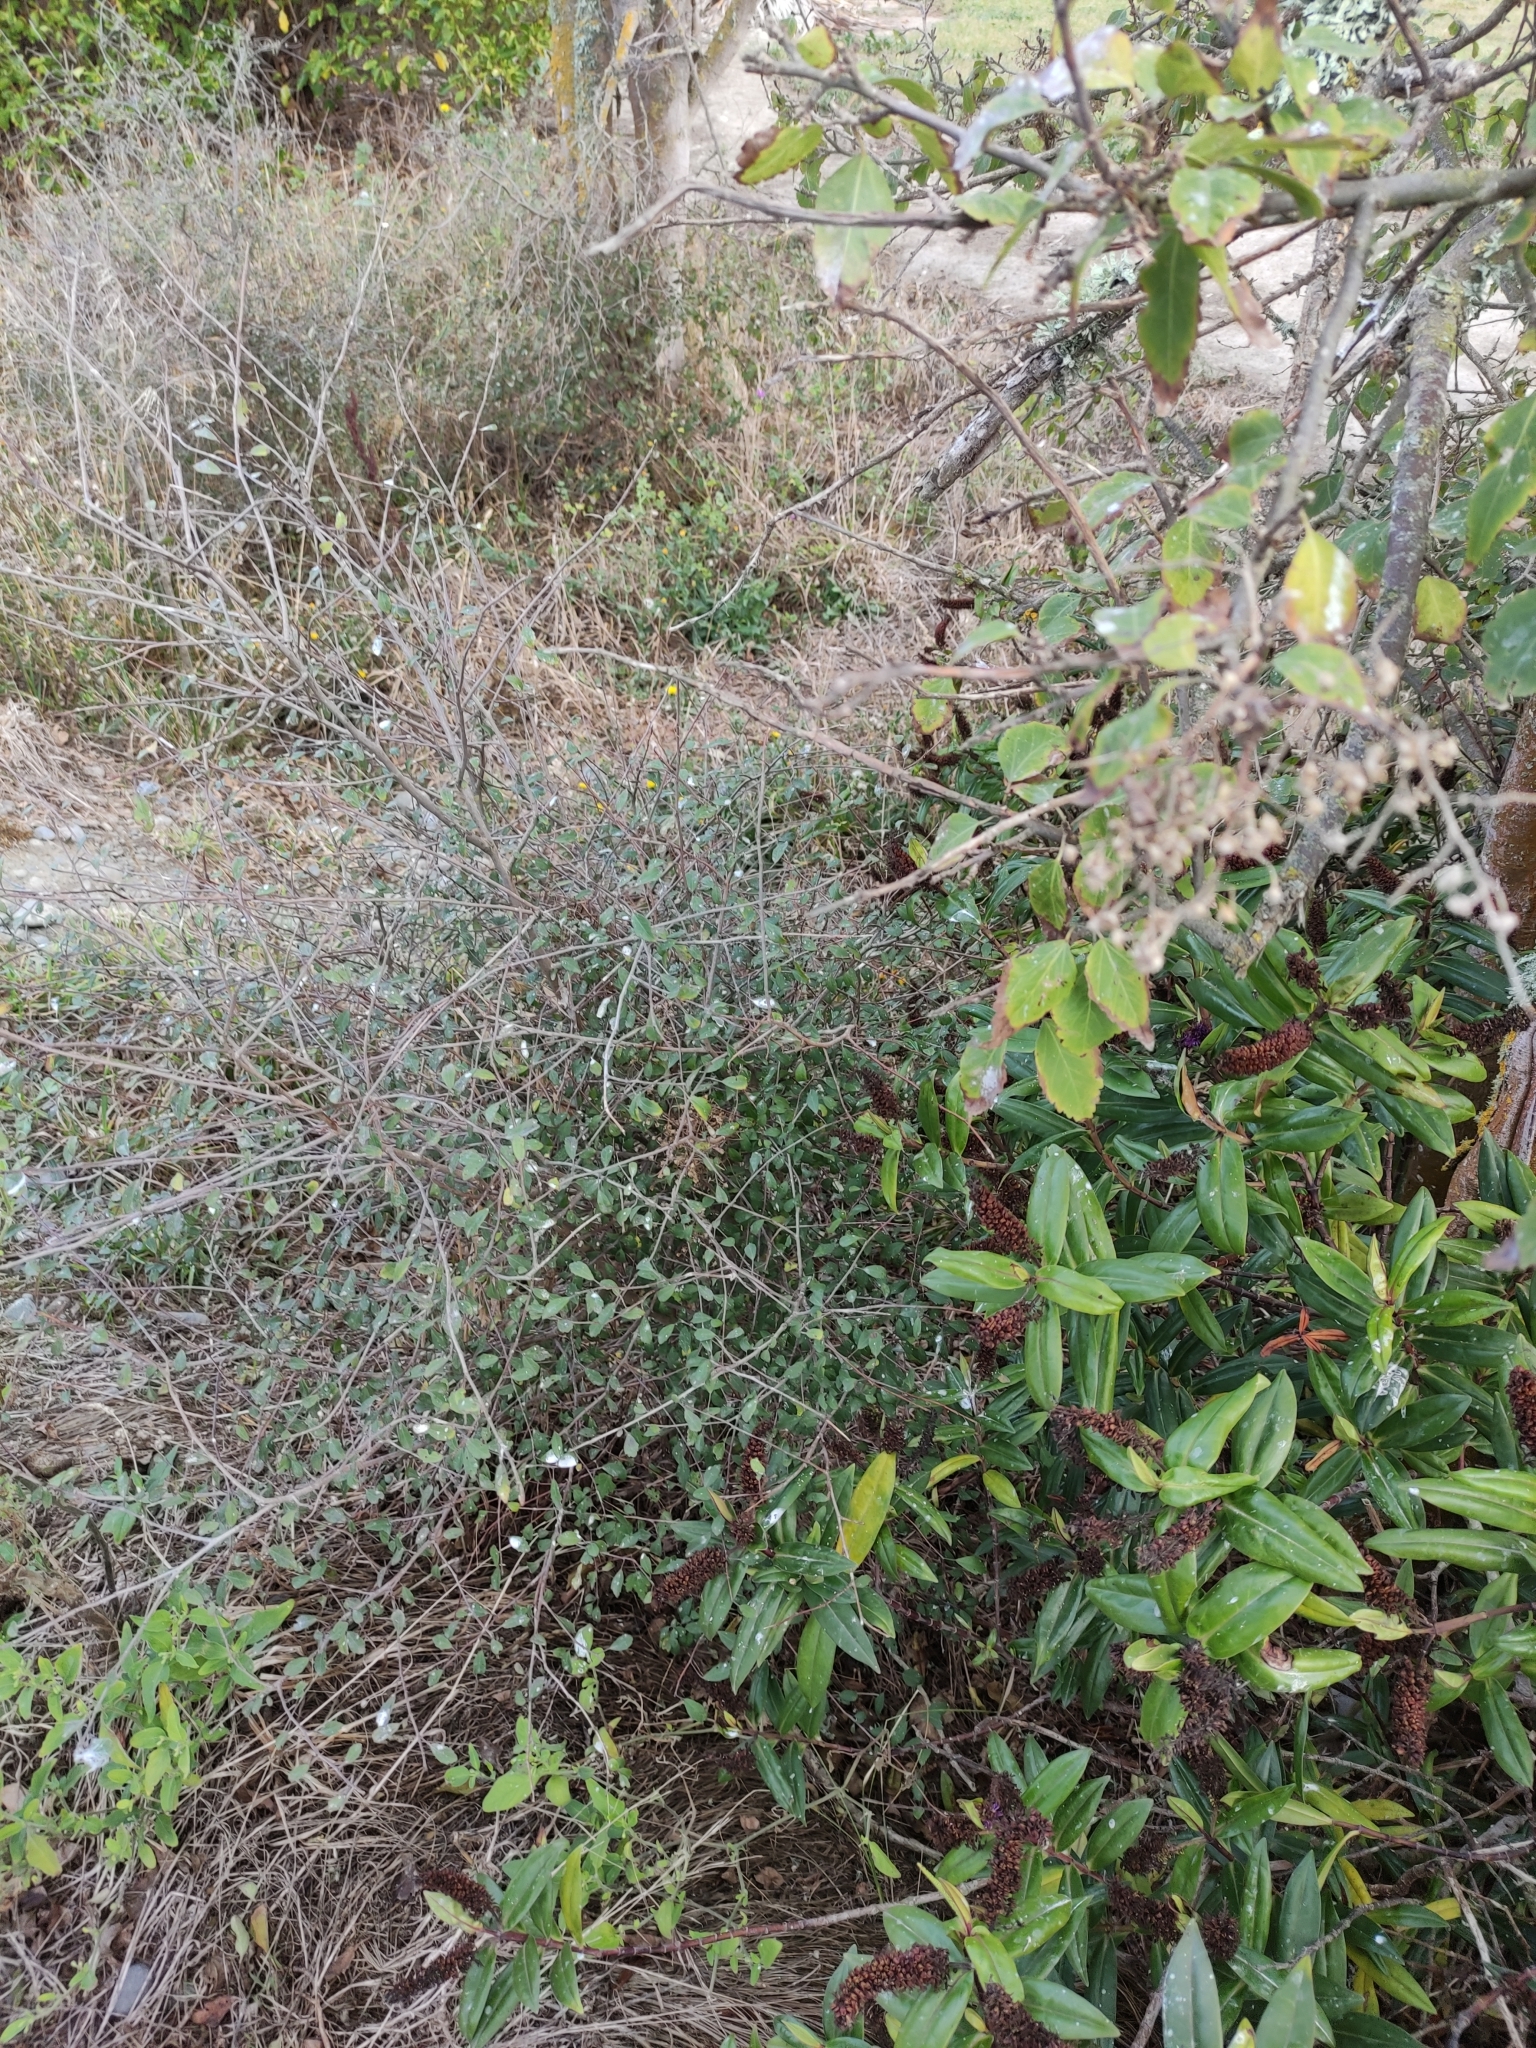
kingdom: Plantae
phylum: Tracheophyta
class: Magnoliopsida
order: Malvales
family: Malvaceae
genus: Plagianthus
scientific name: Plagianthus cymosus
